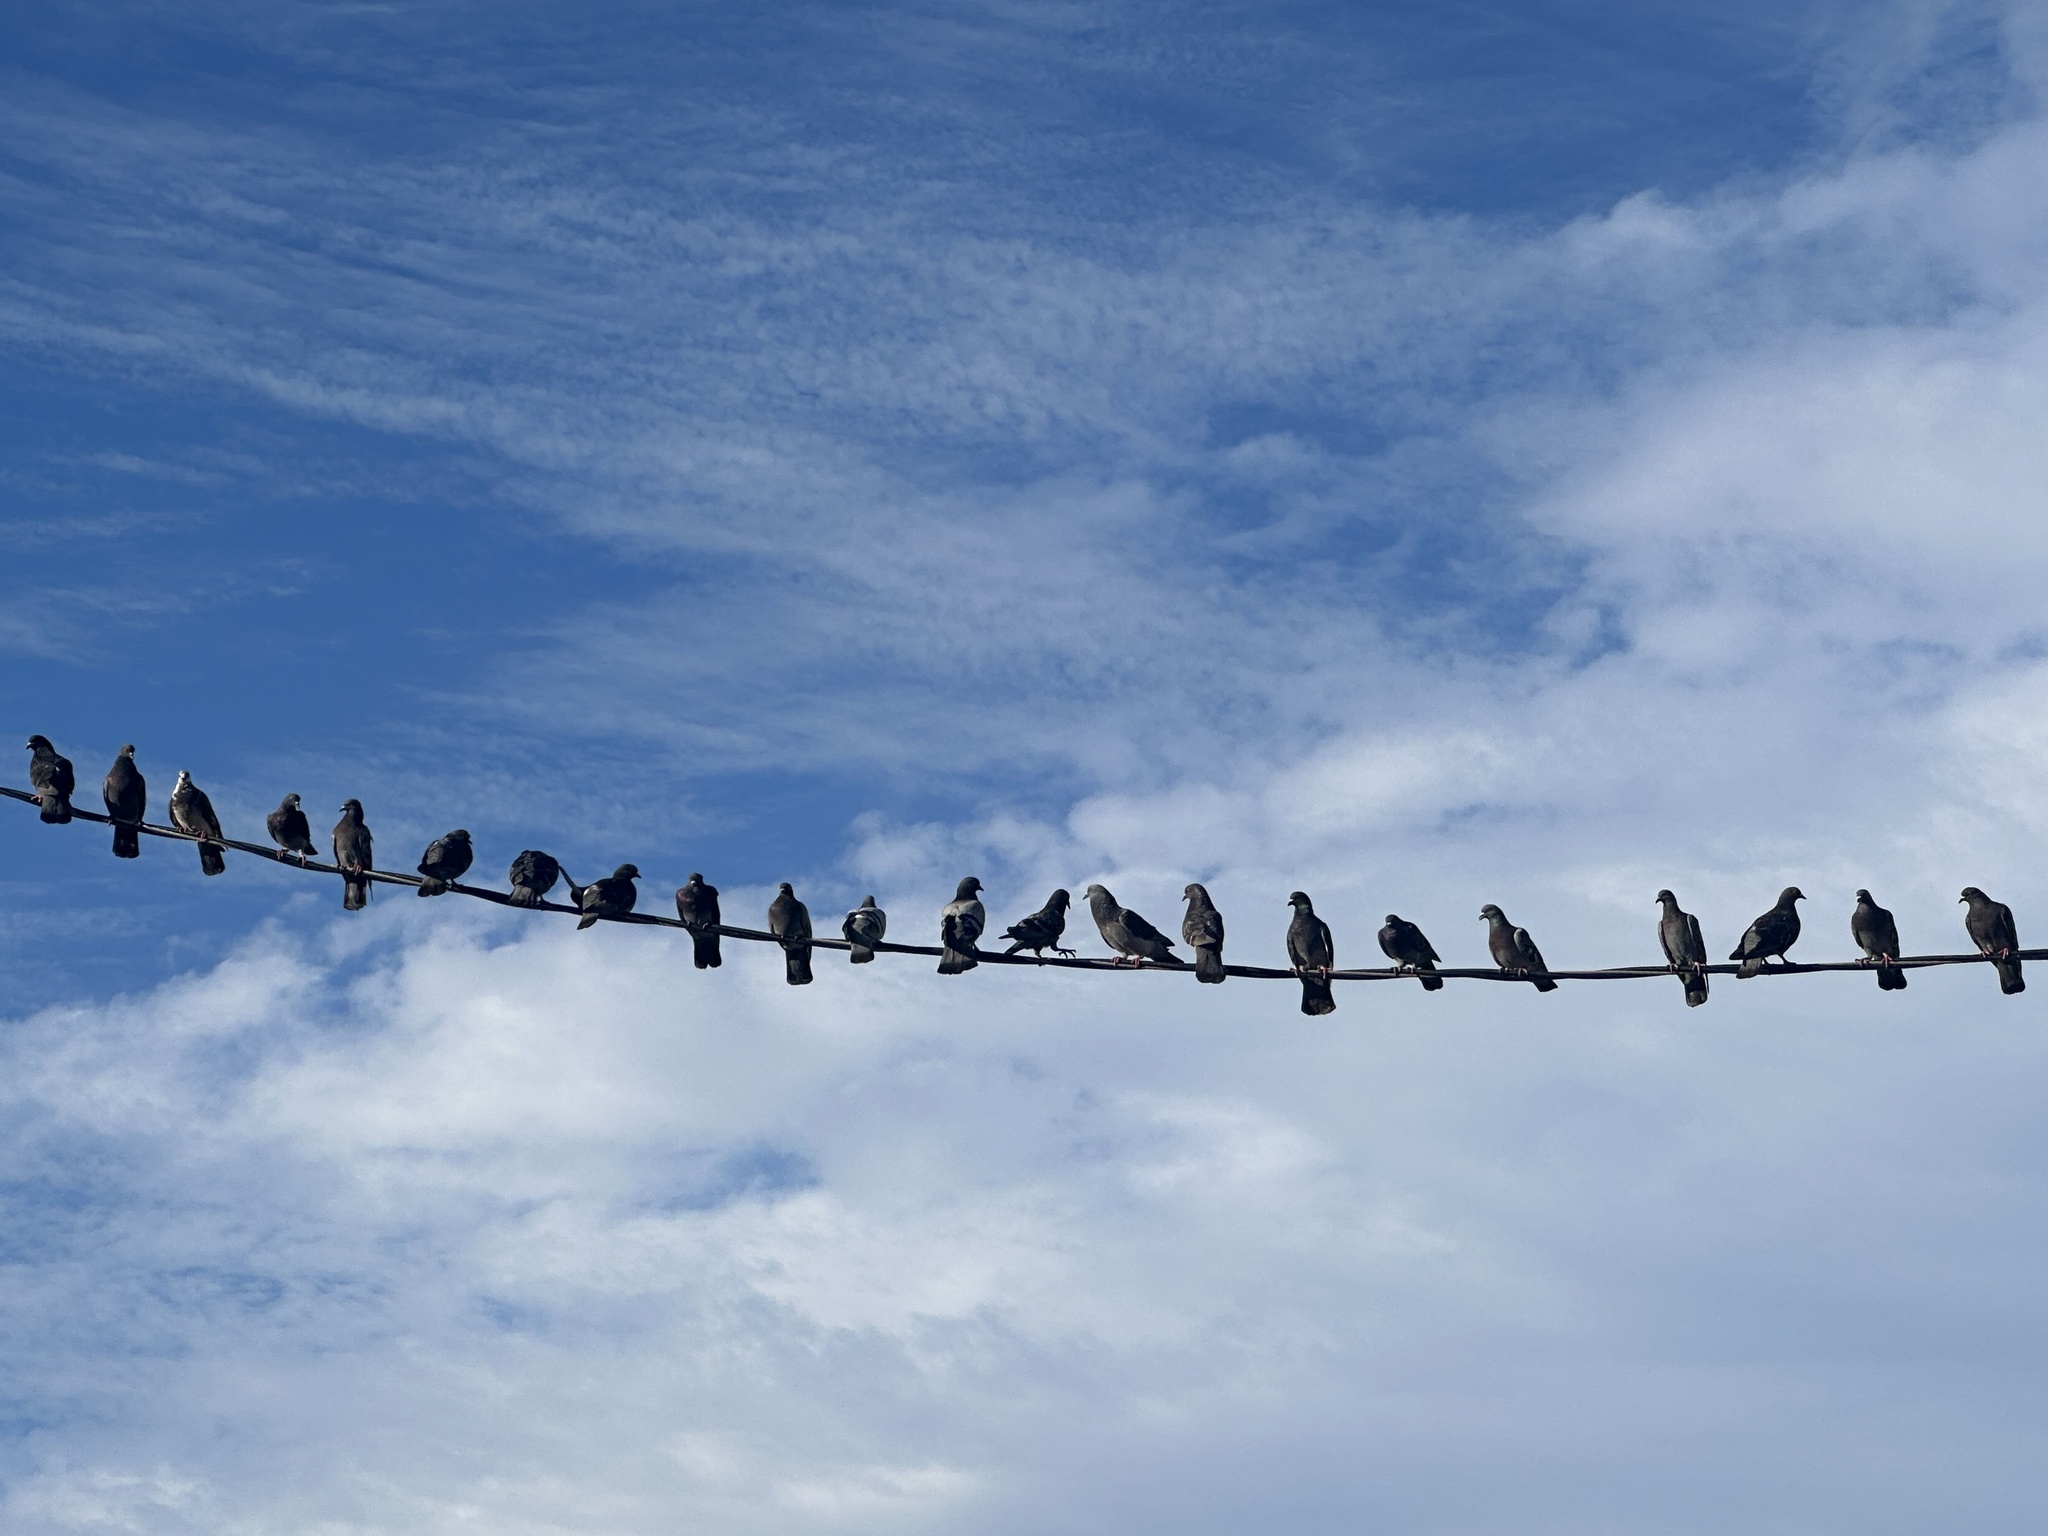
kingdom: Animalia
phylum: Chordata
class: Aves
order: Columbiformes
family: Columbidae
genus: Columba
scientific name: Columba livia
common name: Rock pigeon
